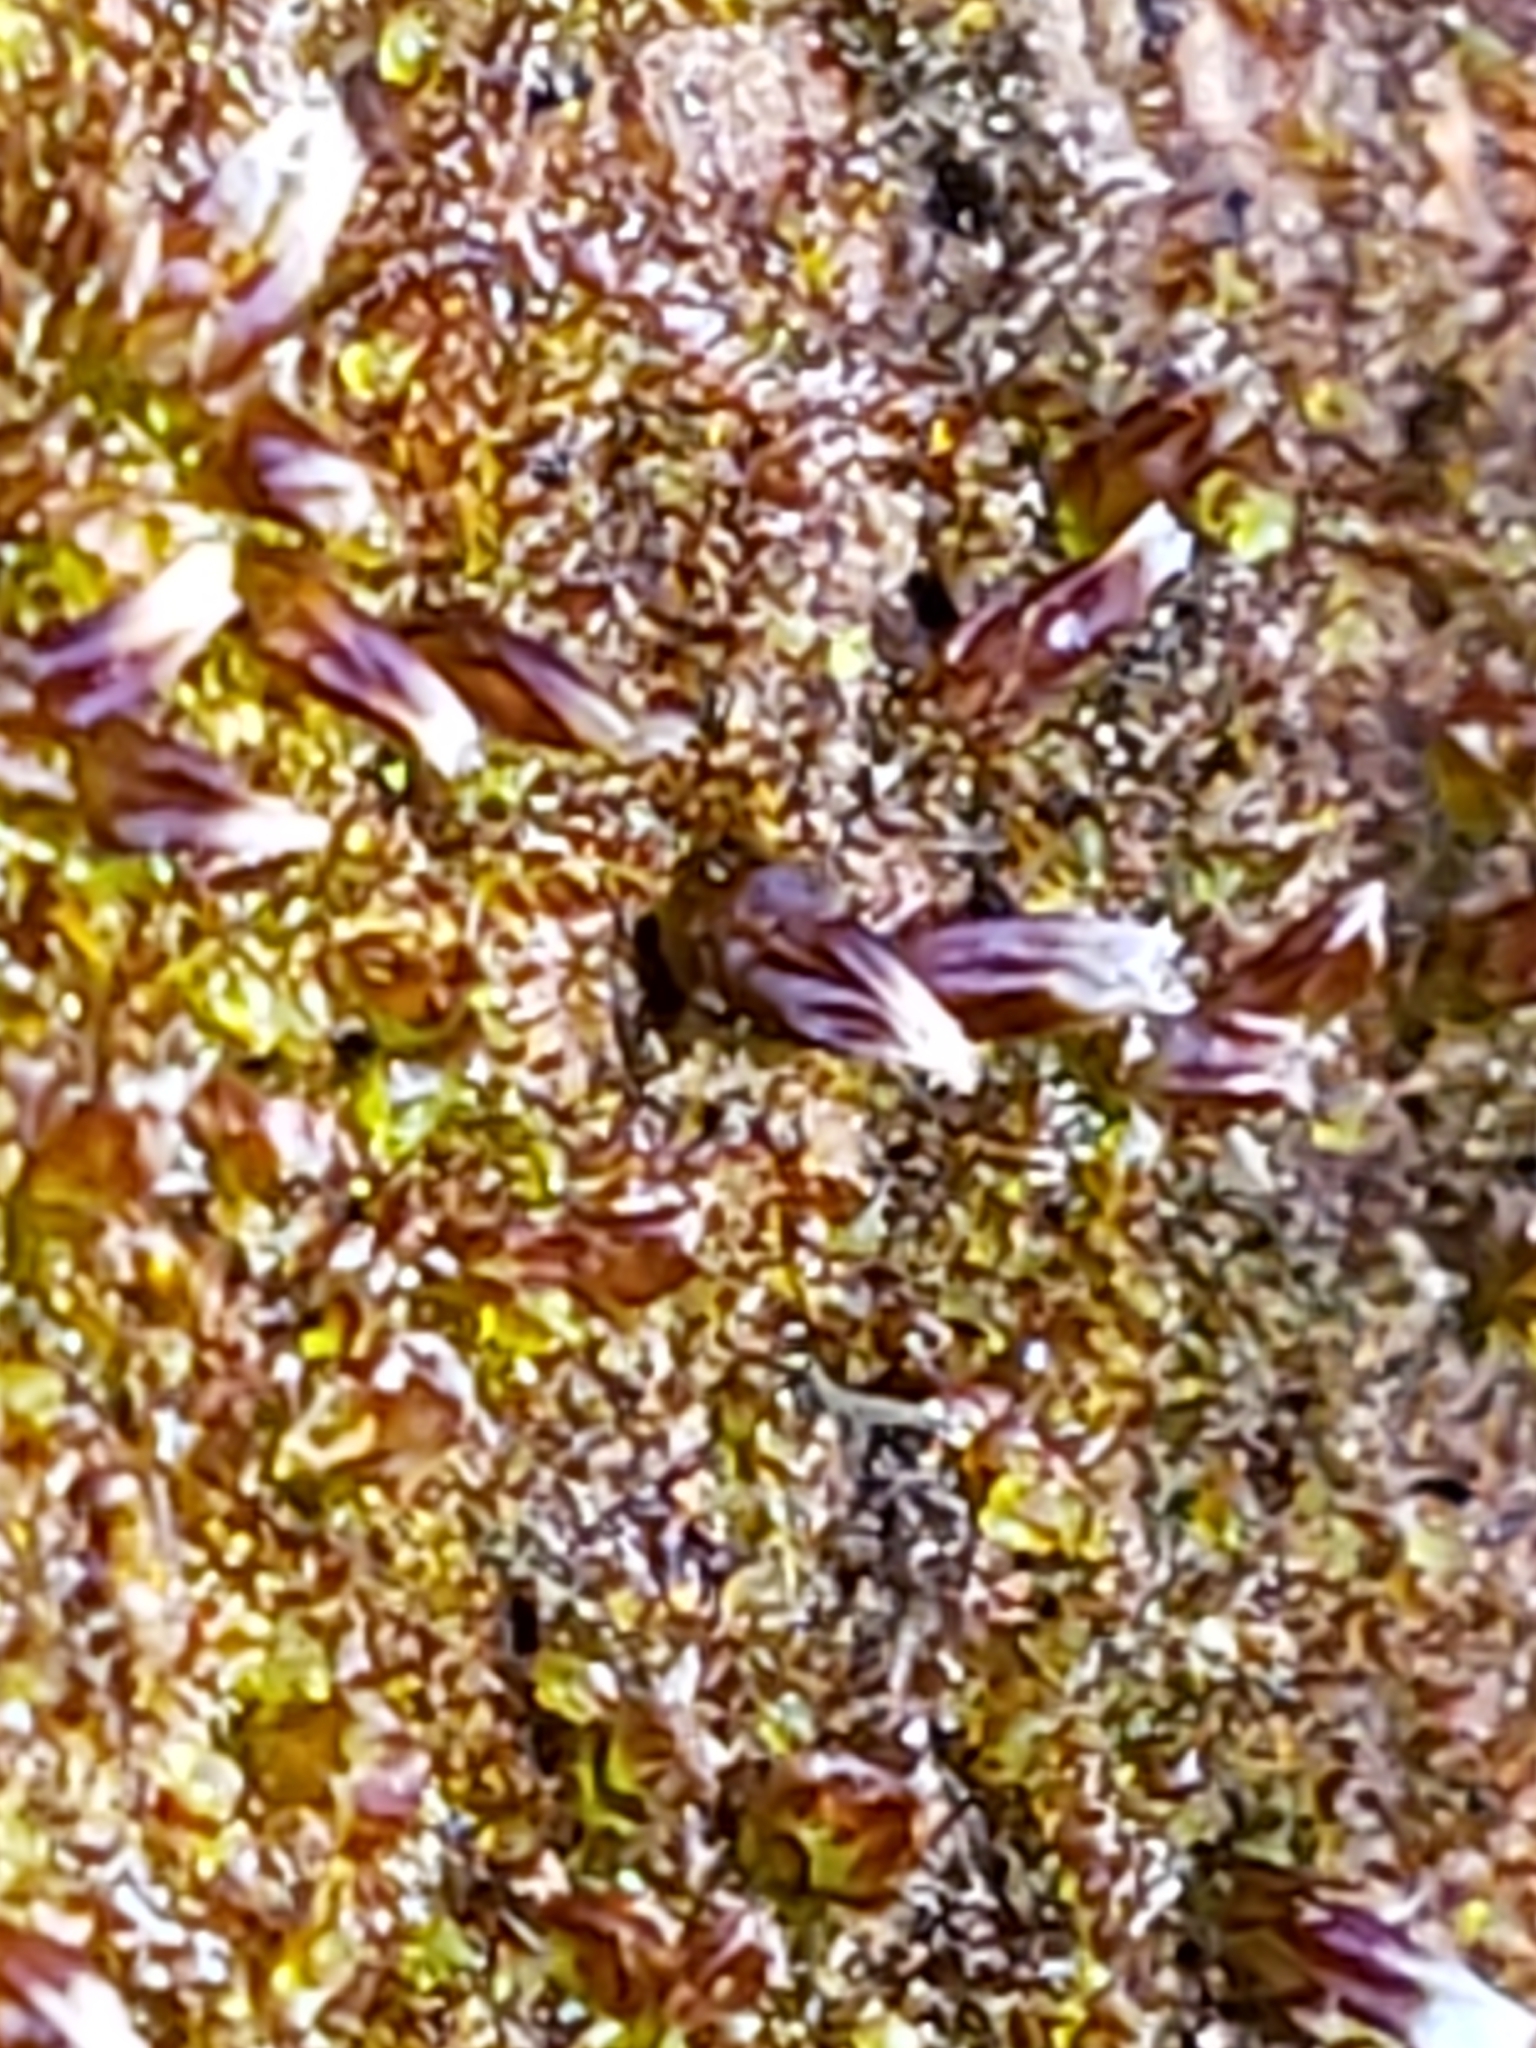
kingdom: Plantae
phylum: Marchantiophyta
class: Jungermanniopsida
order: Jungermanniales
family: Cephaloziaceae
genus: Nowellia
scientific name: Nowellia curvifolia
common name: Wood rustwort
